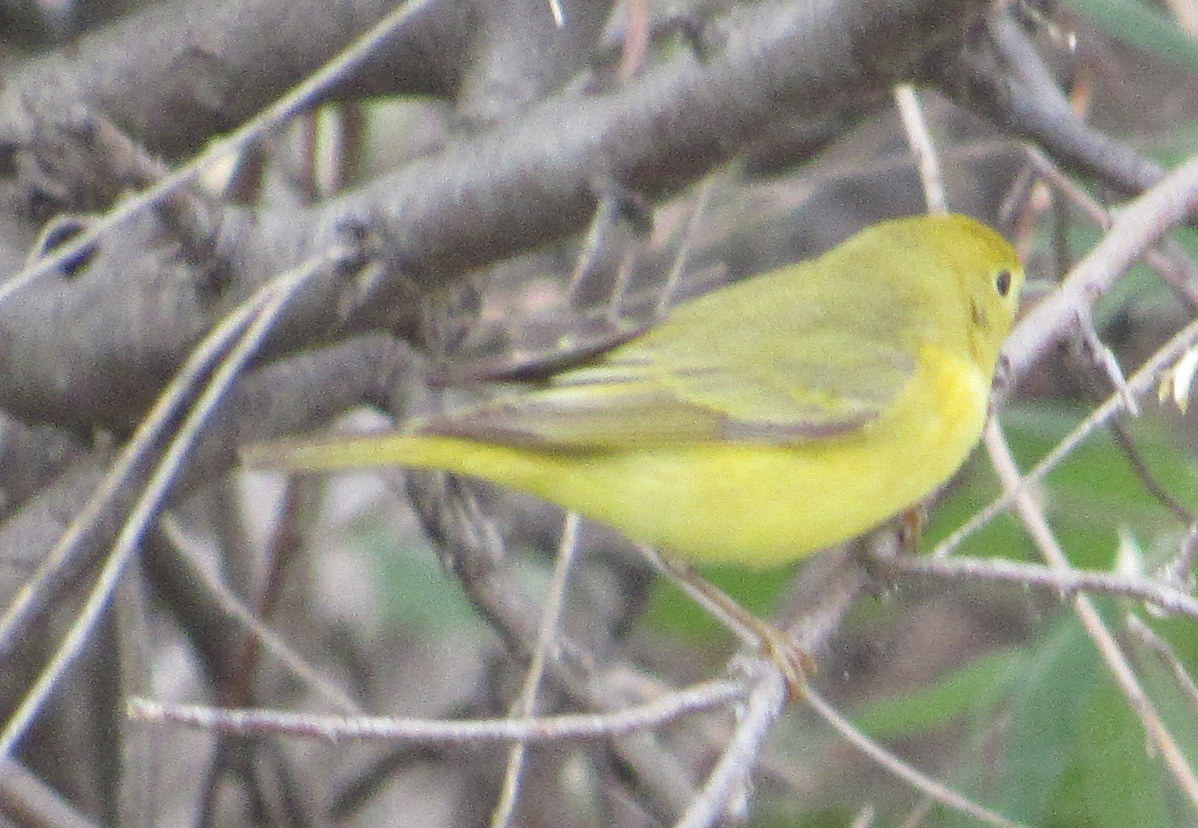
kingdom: Animalia
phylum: Chordata
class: Aves
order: Passeriformes
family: Parulidae
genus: Setophaga
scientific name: Setophaga petechia
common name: Yellow warbler
